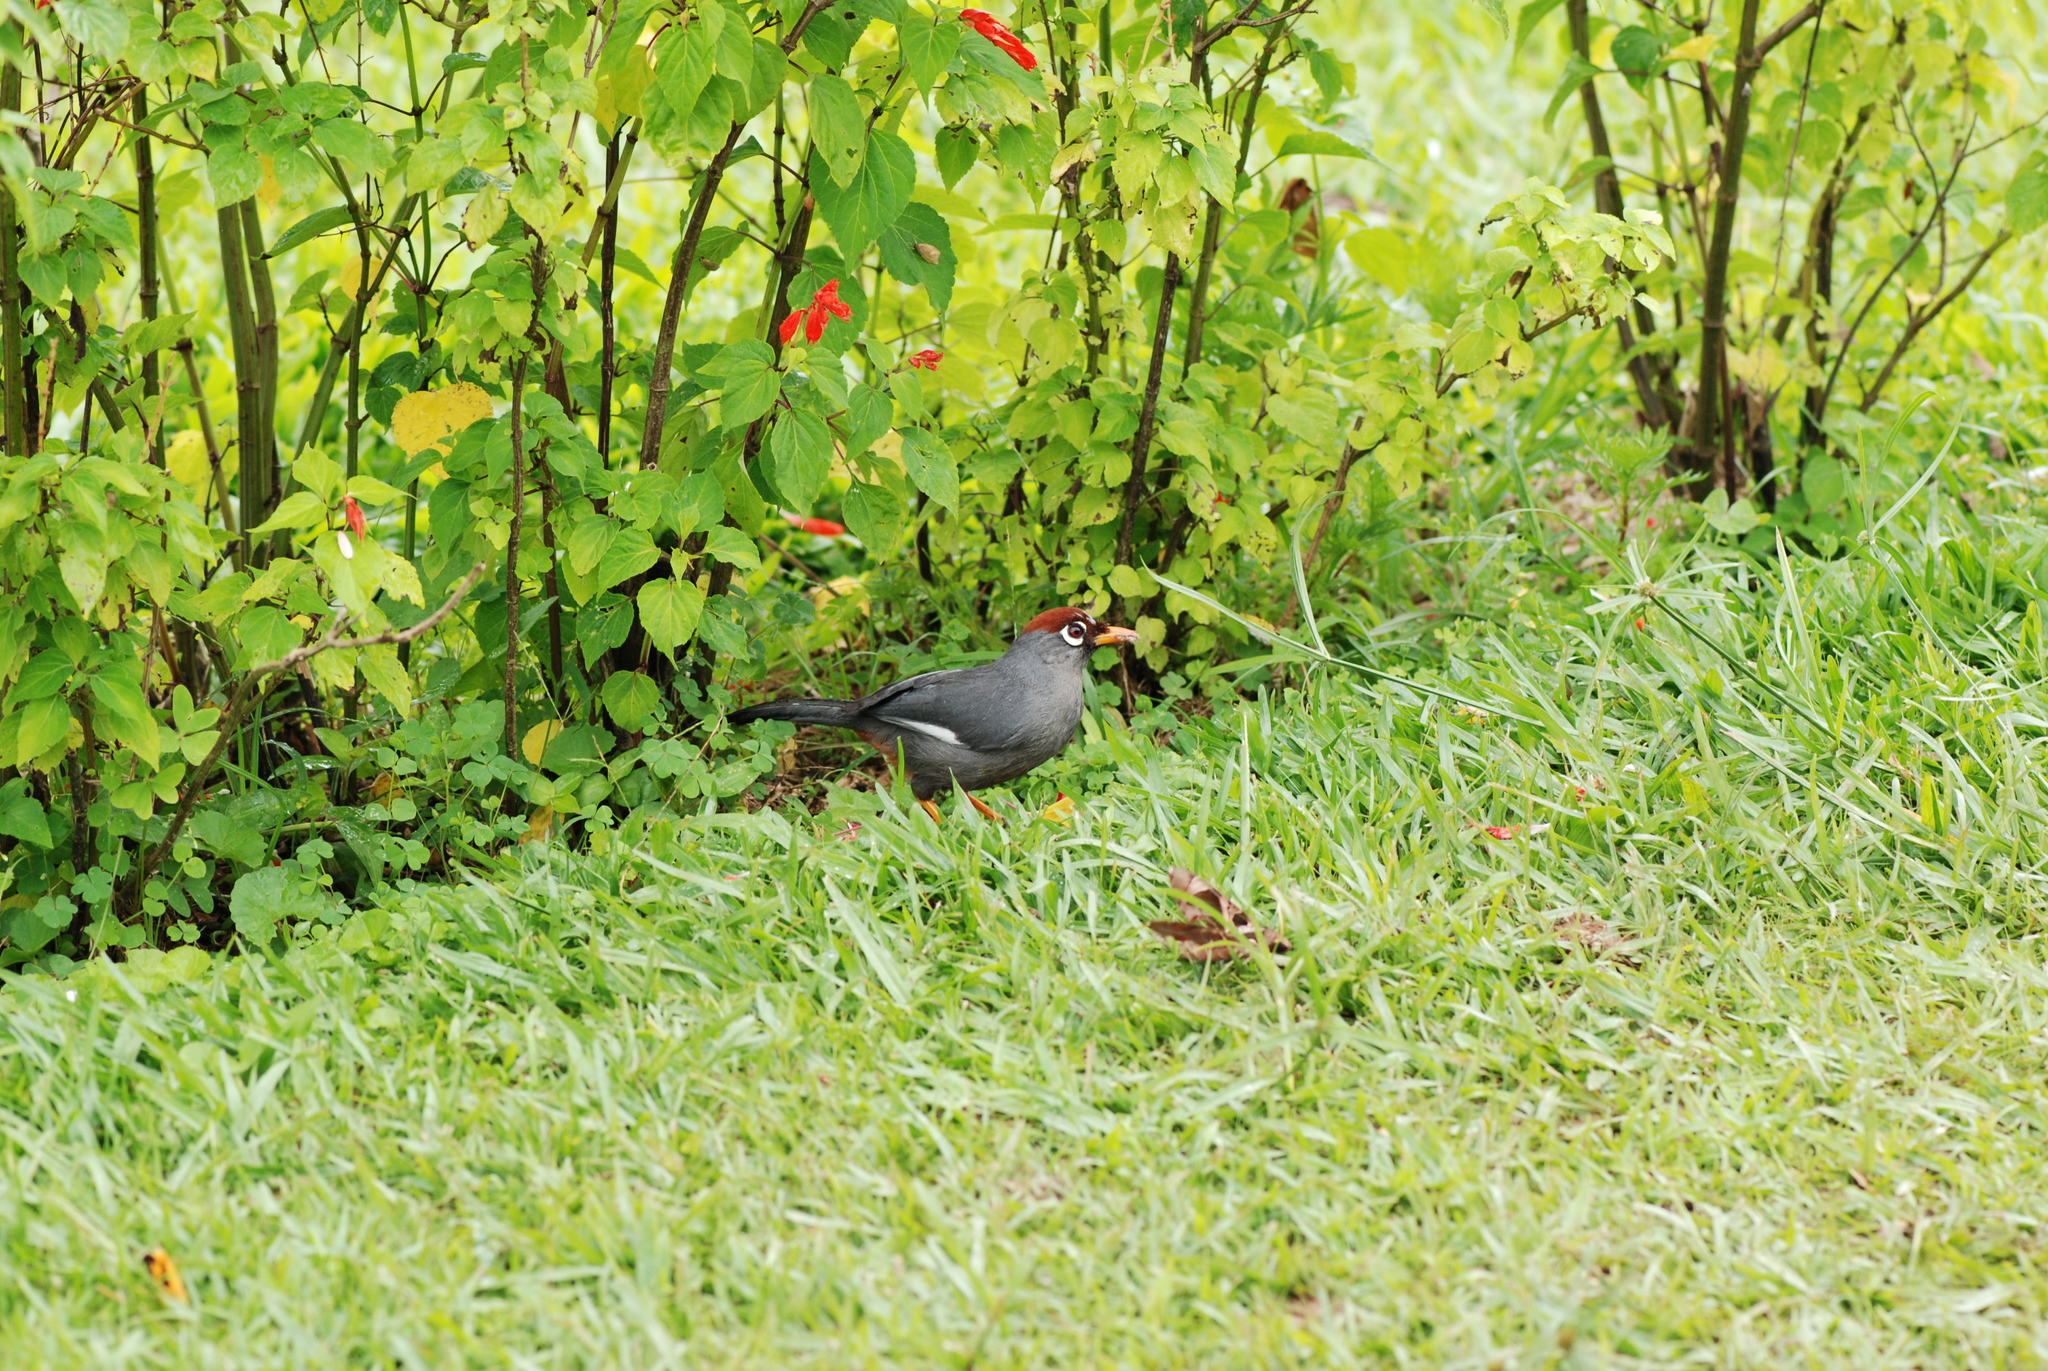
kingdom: Animalia
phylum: Chordata
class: Aves
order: Passeriformes
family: Leiothrichidae
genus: Garrulax
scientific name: Garrulax mitratus
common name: Chestnut-capped laughingthrush
